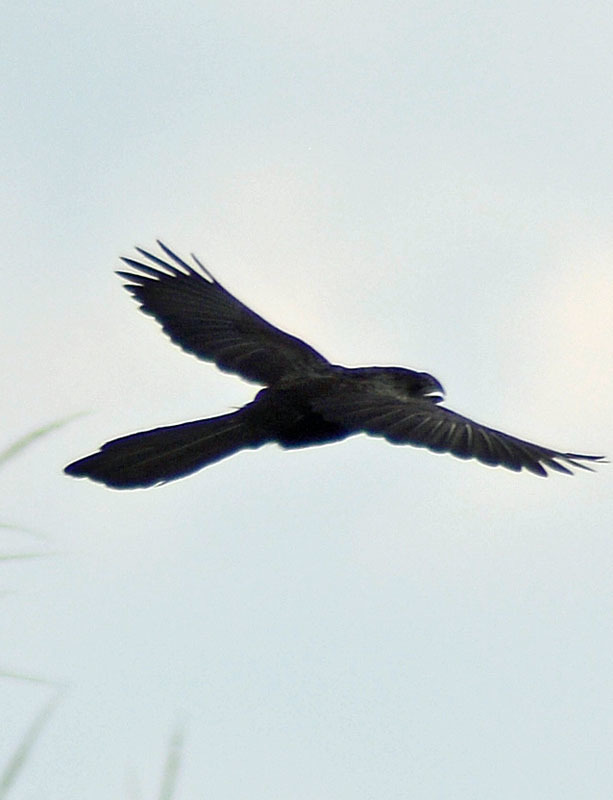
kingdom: Animalia
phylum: Chordata
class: Aves
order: Cuculiformes
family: Cuculidae
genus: Crotophaga
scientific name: Crotophaga sulcirostris
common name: Groove-billed ani
